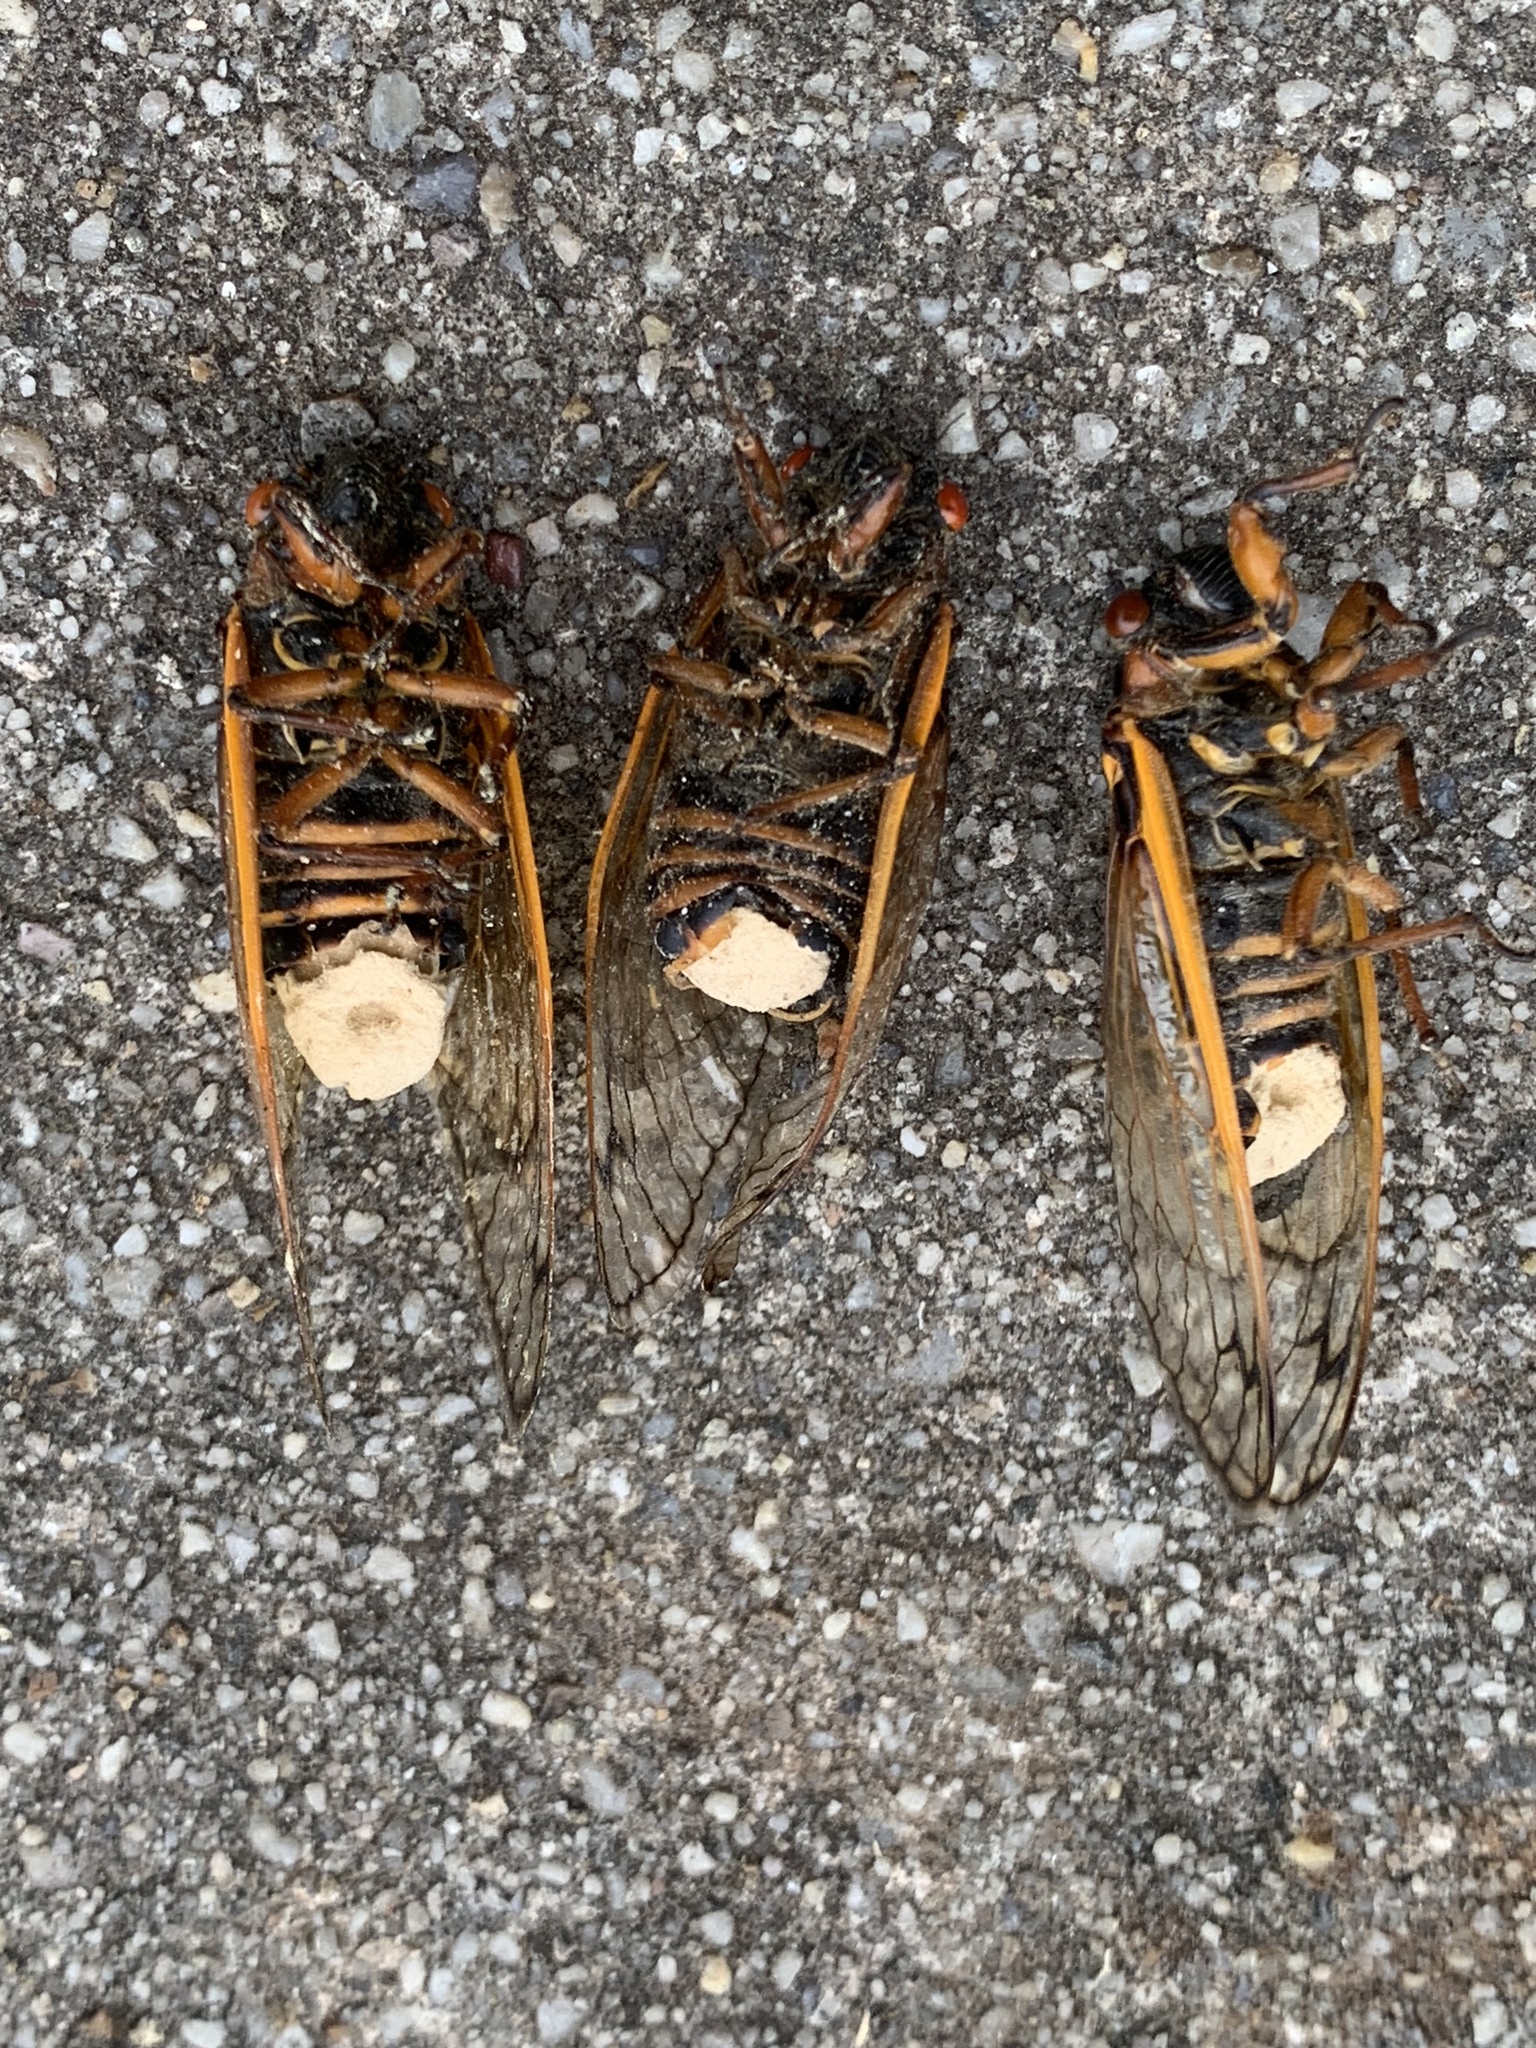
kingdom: Fungi
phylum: Entomophthoromycota
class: Entomophthoromycetes
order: Entomophthorales
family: Entomophthoraceae
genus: Massospora
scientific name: Massospora cicadina
